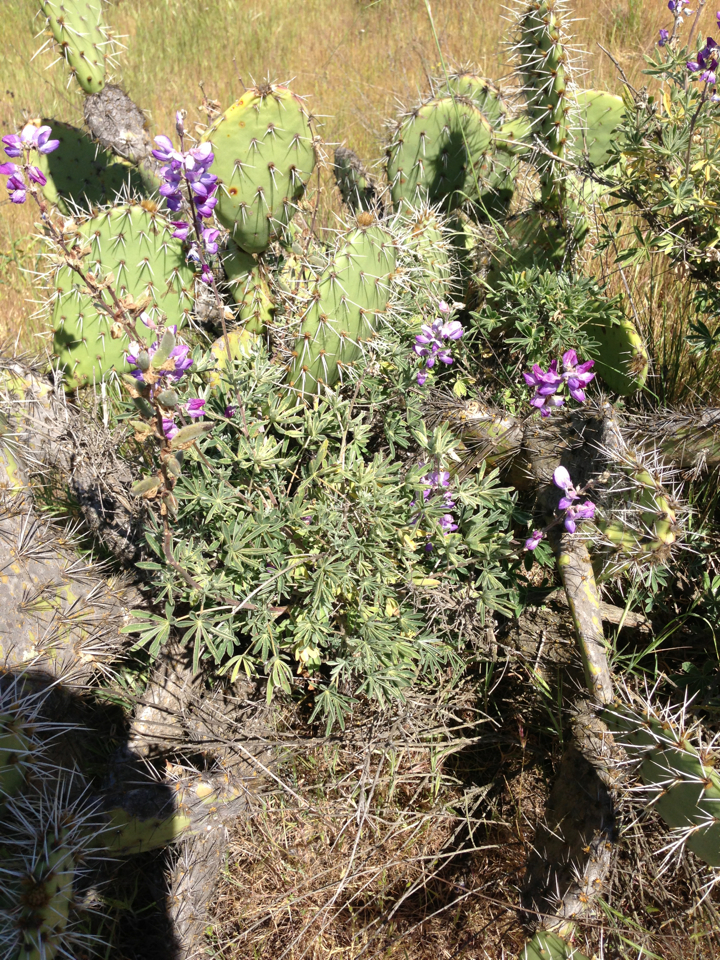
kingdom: Plantae
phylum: Tracheophyta
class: Magnoliopsida
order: Fabales
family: Fabaceae
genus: Lupinus
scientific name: Lupinus longifolius
